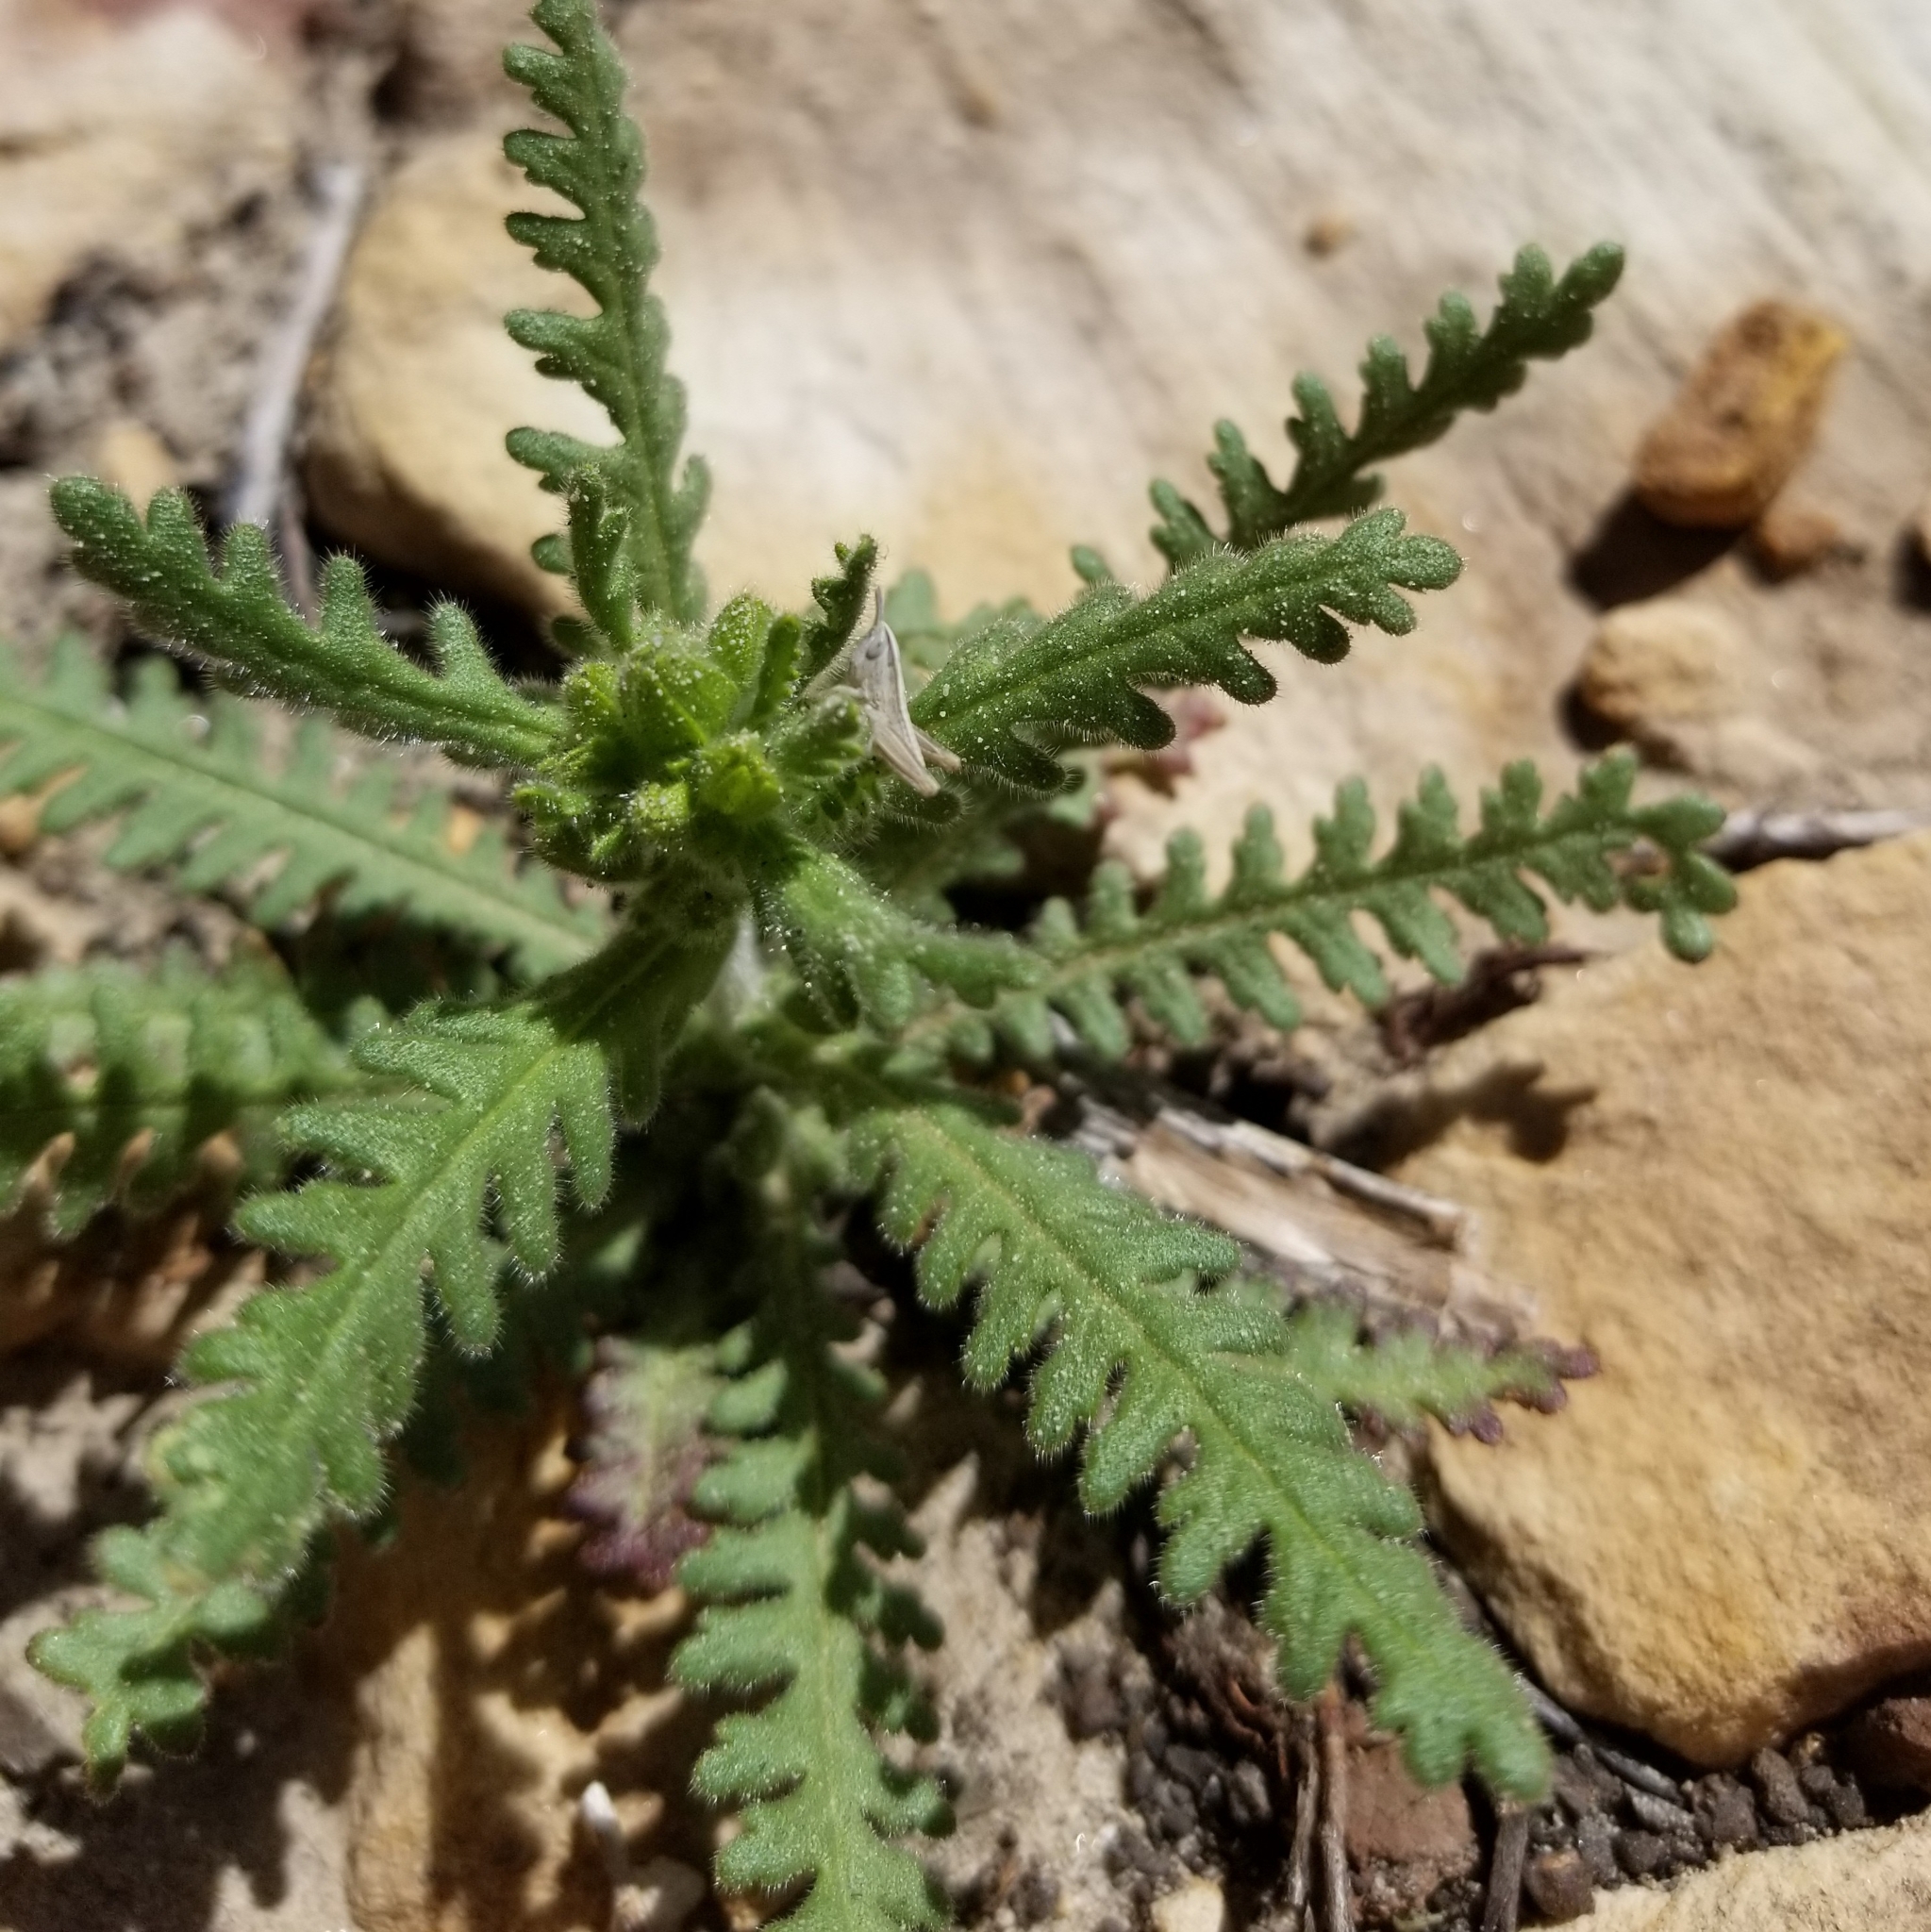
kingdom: Plantae
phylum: Tracheophyta
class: Magnoliopsida
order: Boraginales
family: Hydrophyllaceae
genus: Emmenanthe
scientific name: Emmenanthe penduliflora
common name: Whispering-bells
